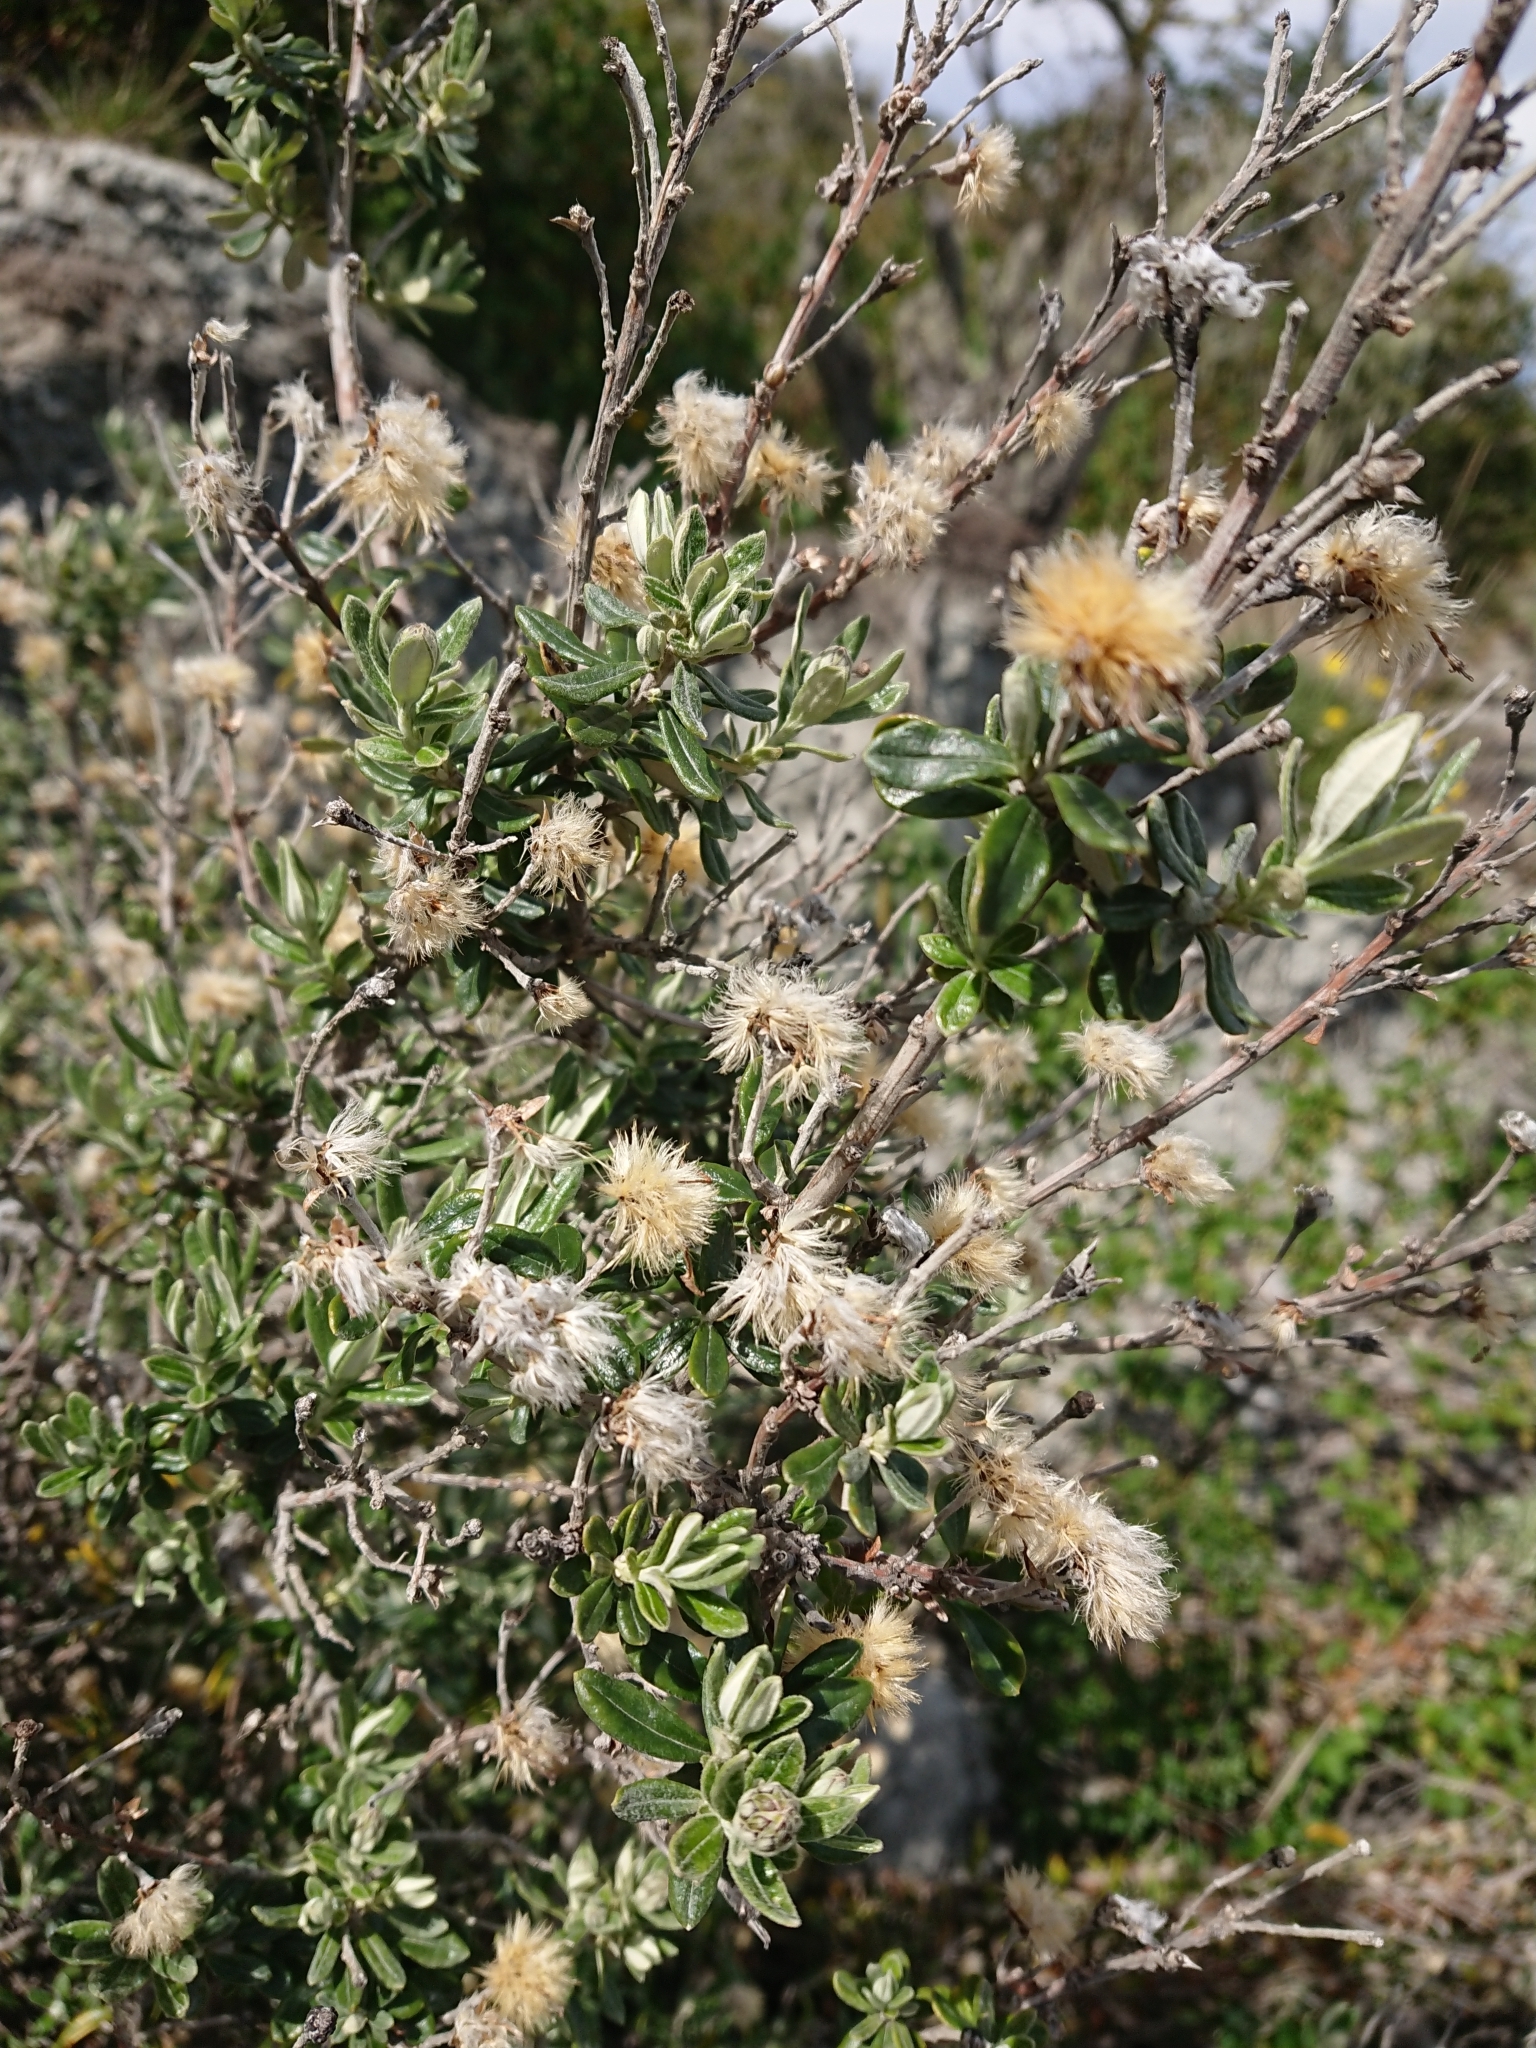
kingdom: Plantae
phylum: Tracheophyta
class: Magnoliopsida
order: Asterales
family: Asteraceae
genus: Chiliotrichum
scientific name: Chiliotrichum diffusum
